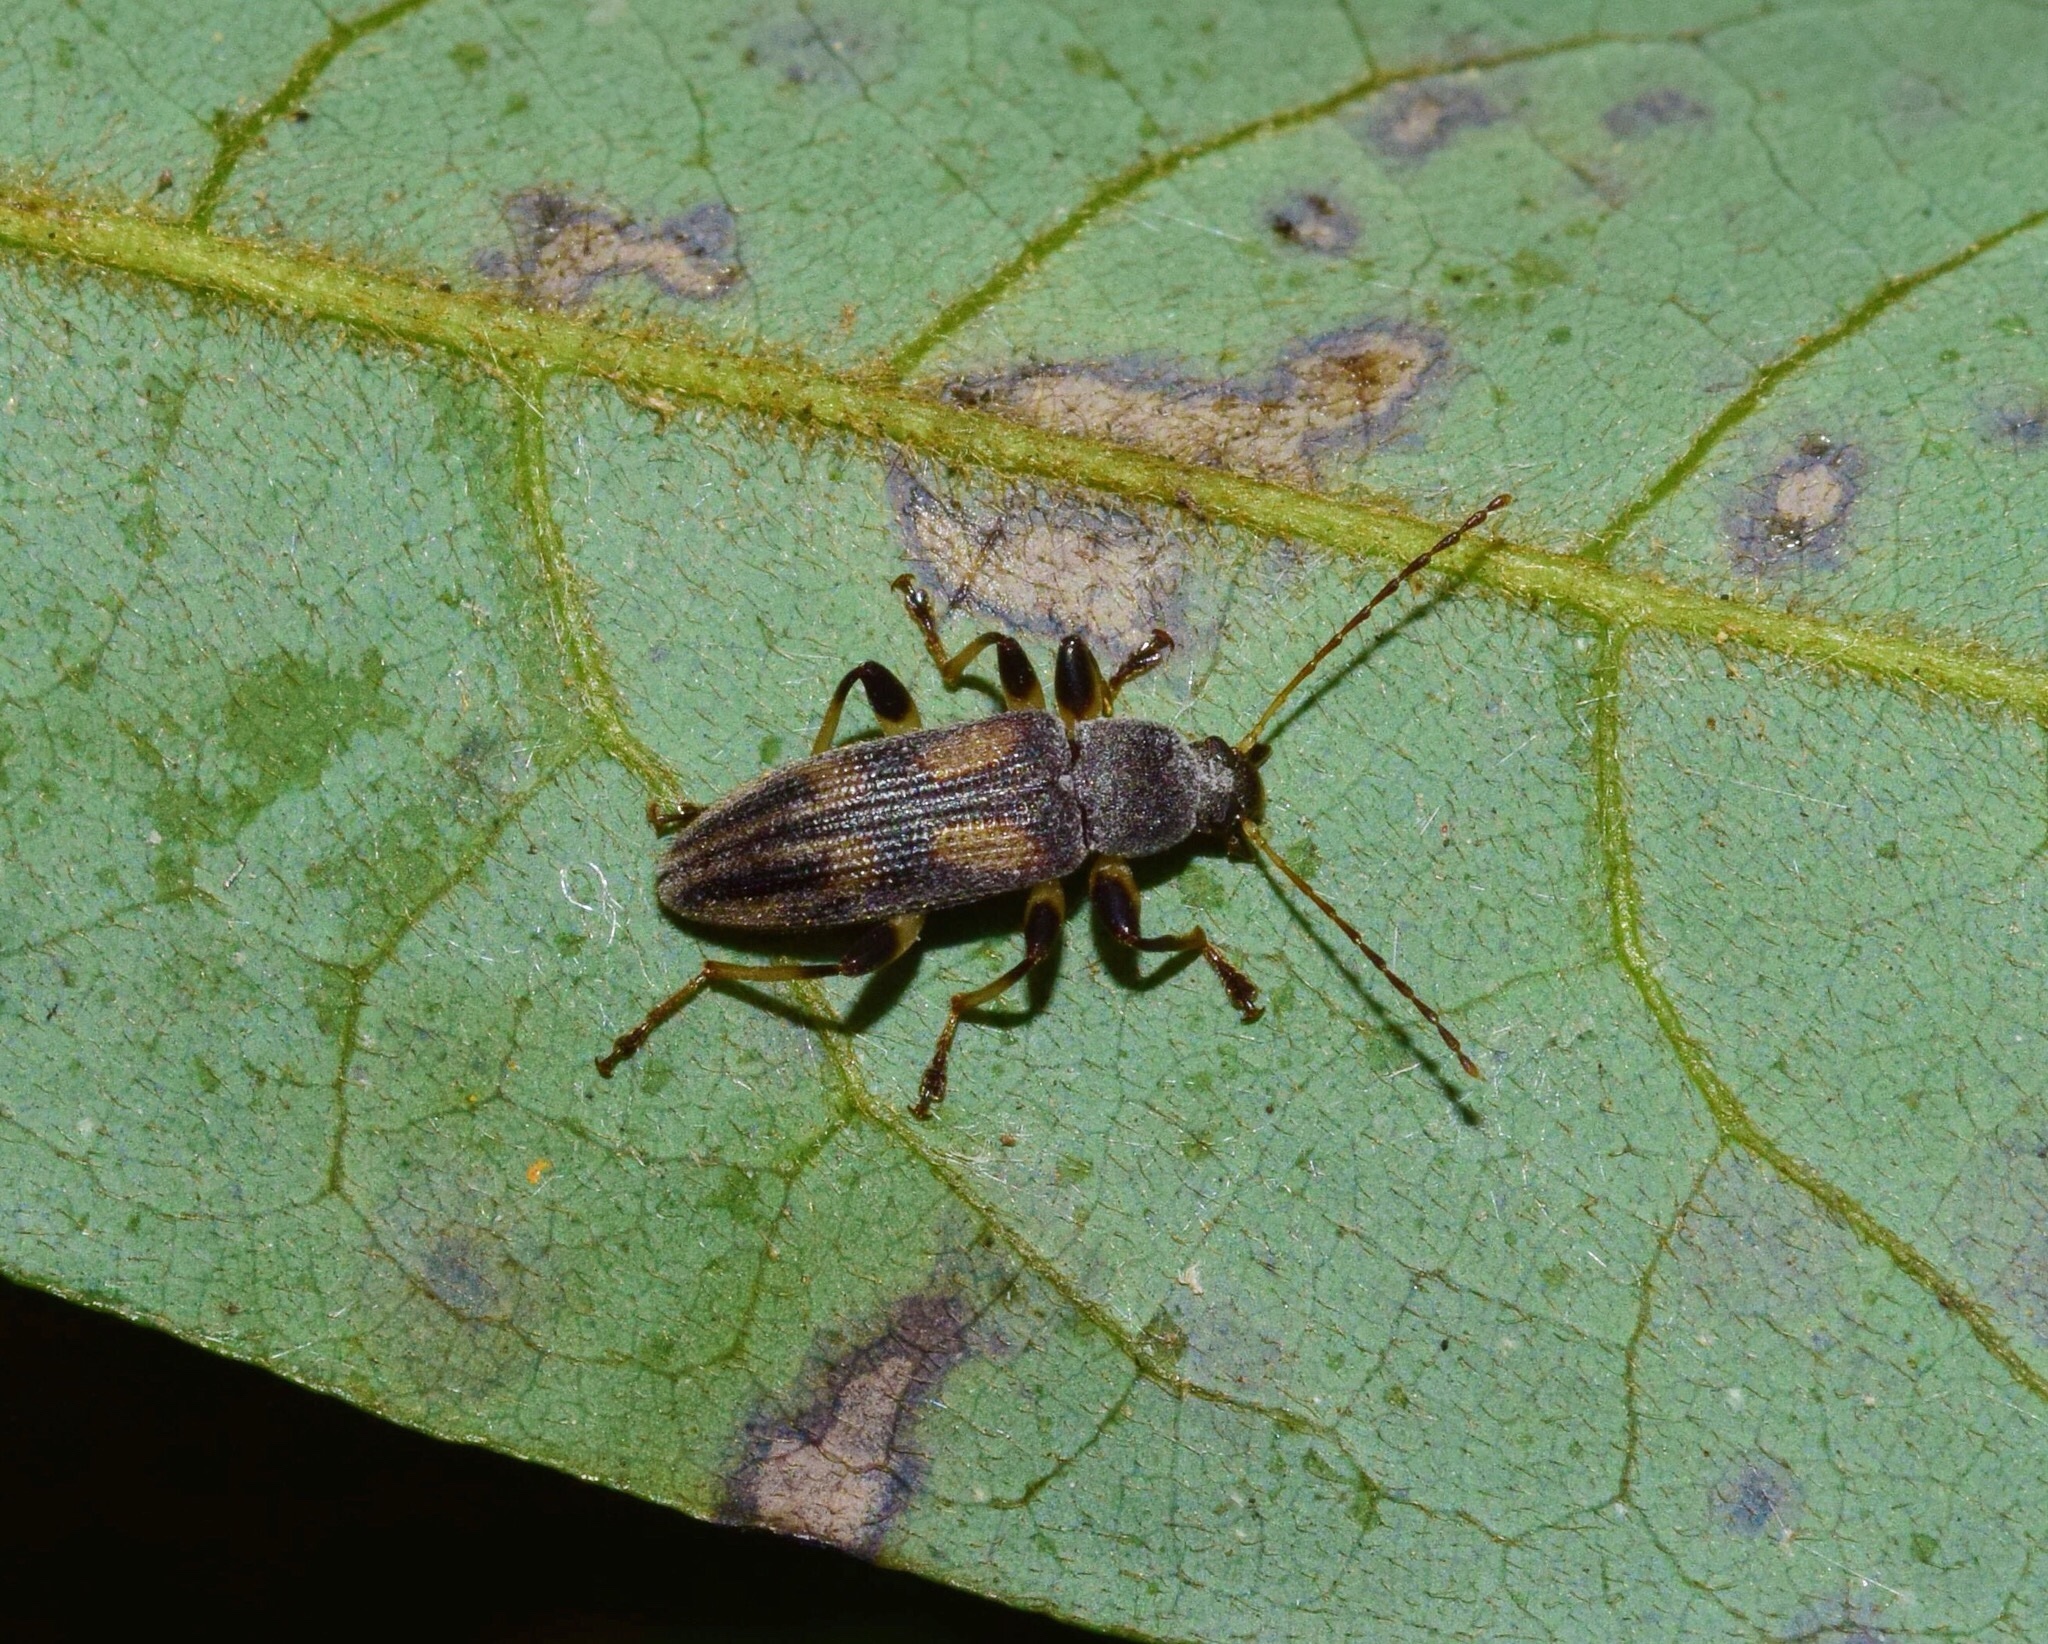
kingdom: Animalia
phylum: Arthropoda
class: Insecta
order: Coleoptera
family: Tenebrionidae
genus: Allecula
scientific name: Allecula
